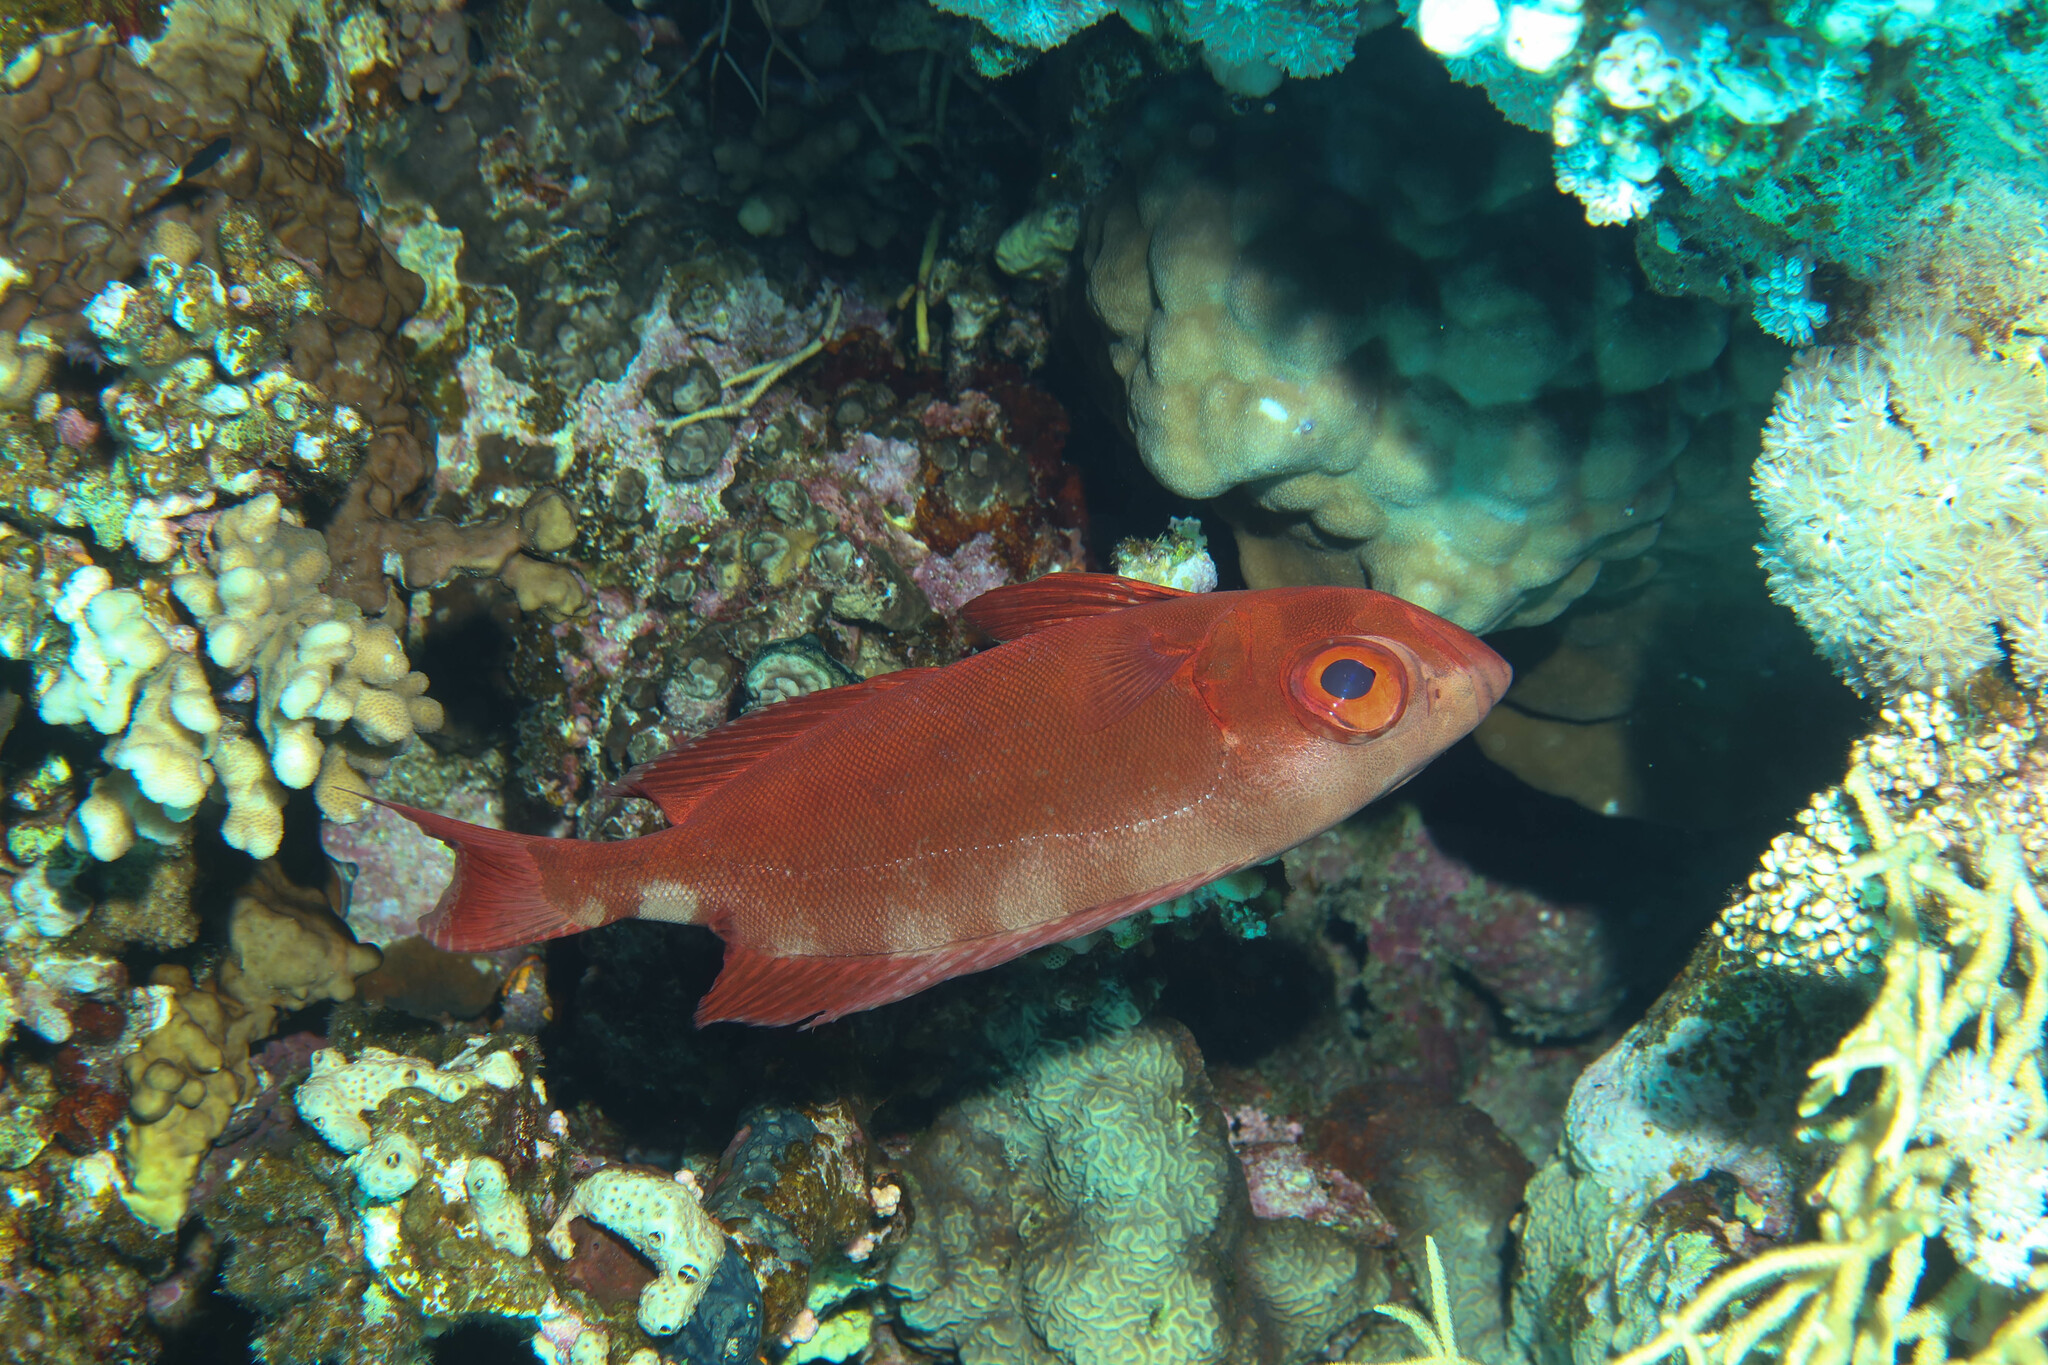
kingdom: Animalia
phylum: Chordata
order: Perciformes
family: Priacanthidae
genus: Priacanthus
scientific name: Priacanthus hamrur
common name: Moontail bullseye
